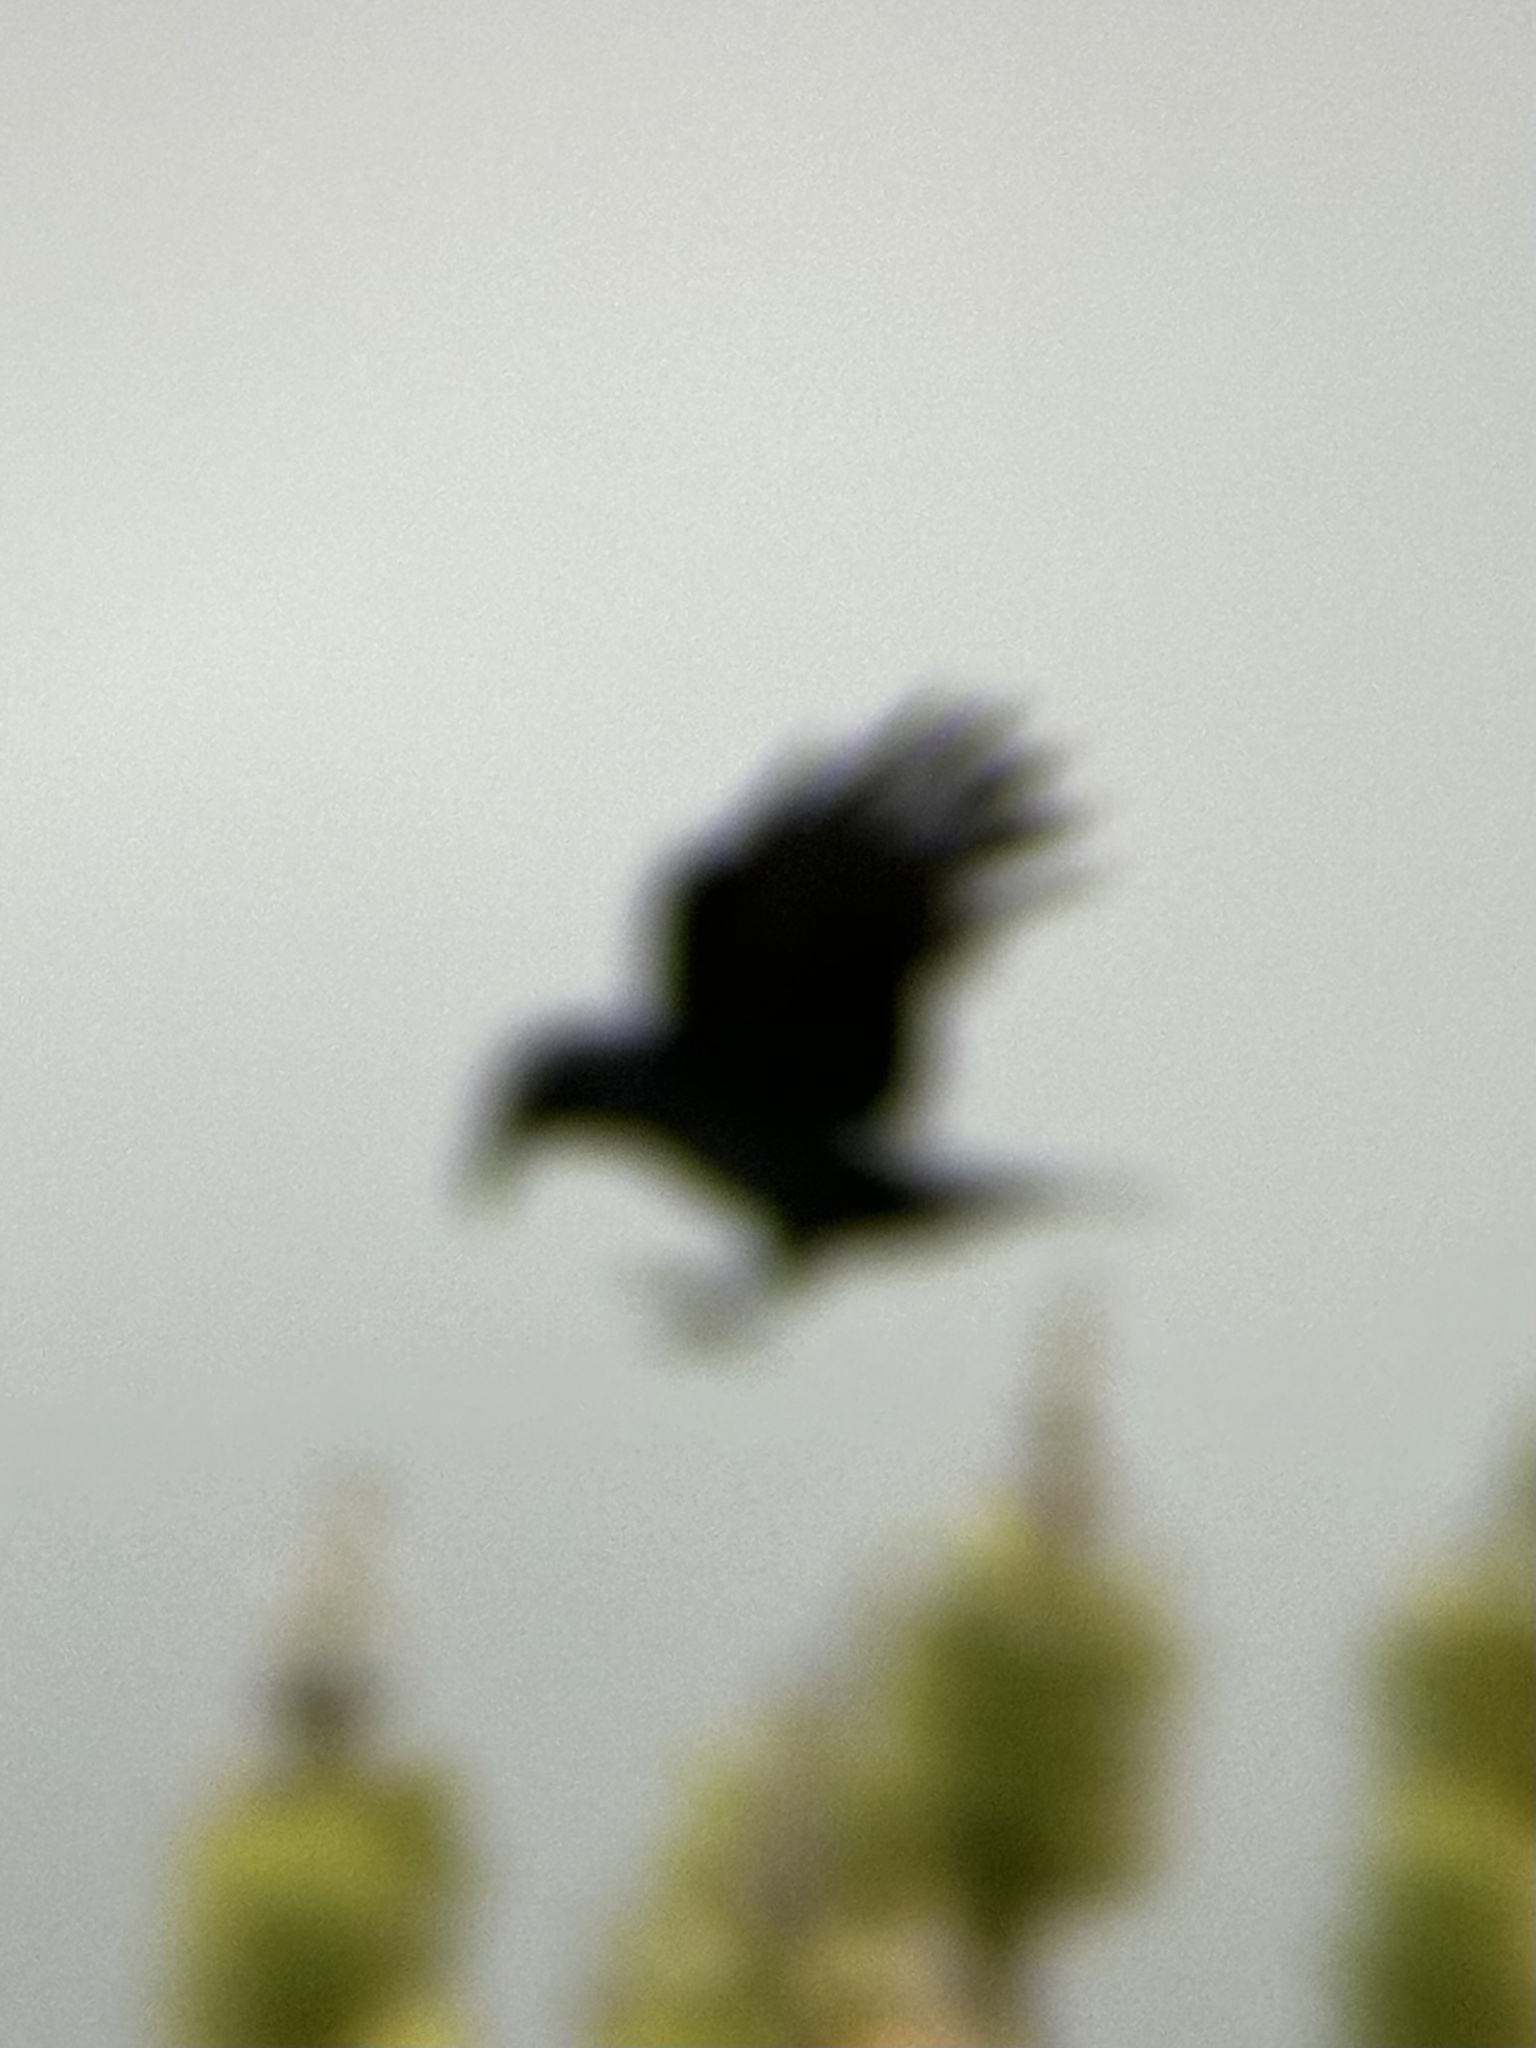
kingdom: Animalia
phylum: Chordata
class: Aves
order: Passeriformes
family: Corvidae
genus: Corvus
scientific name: Corvus corax
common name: Common raven
